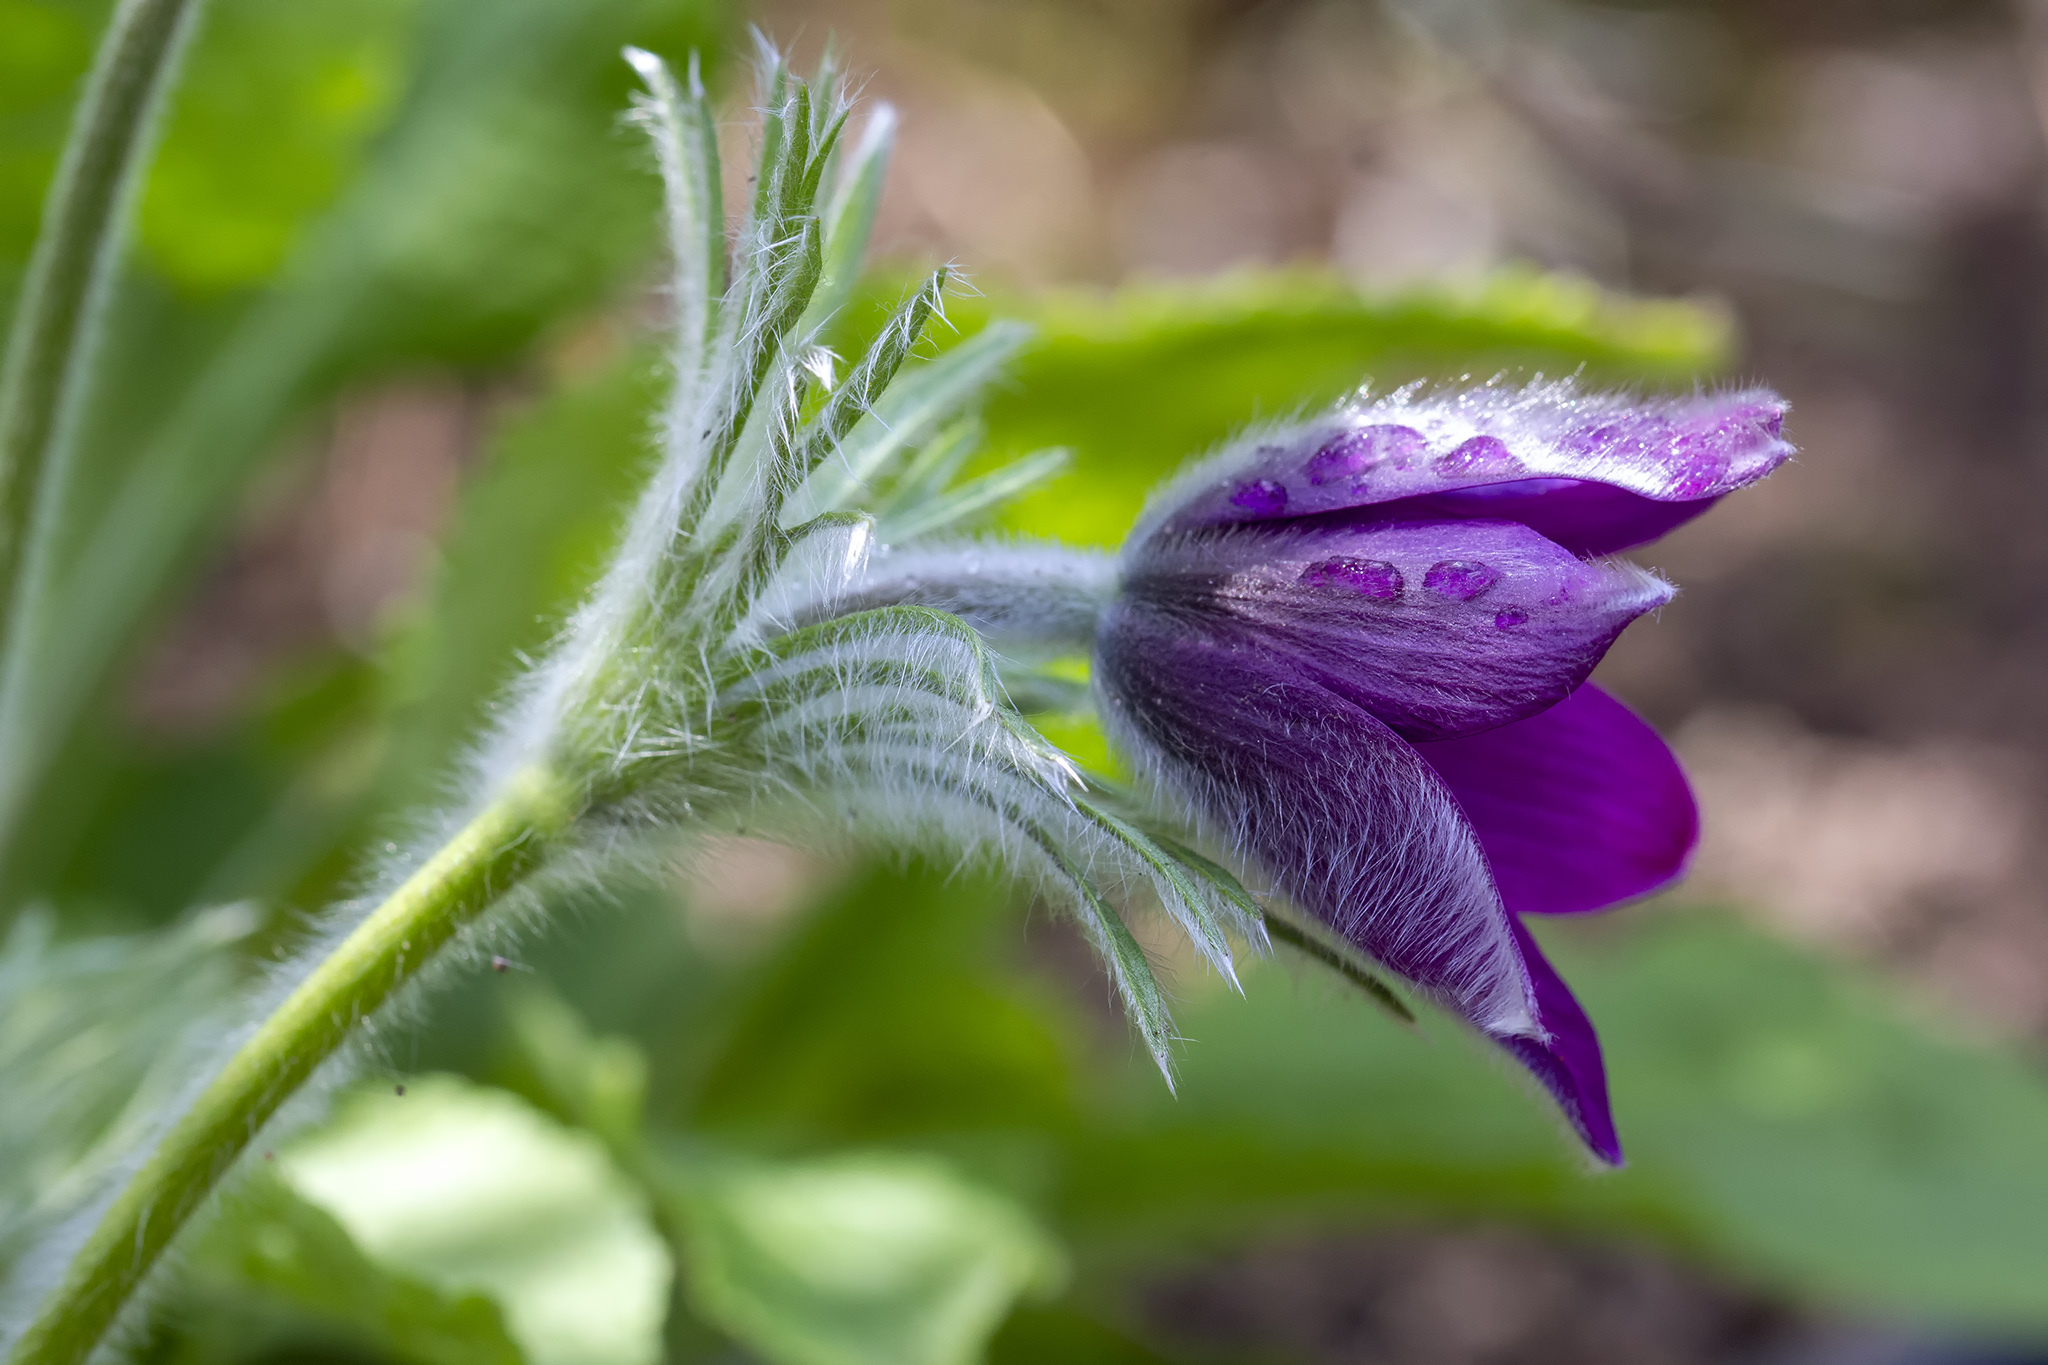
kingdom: Plantae
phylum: Tracheophyta
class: Magnoliopsida
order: Ranunculales
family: Ranunculaceae
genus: Pulsatilla
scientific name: Pulsatilla vulgaris
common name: Pasqueflower
